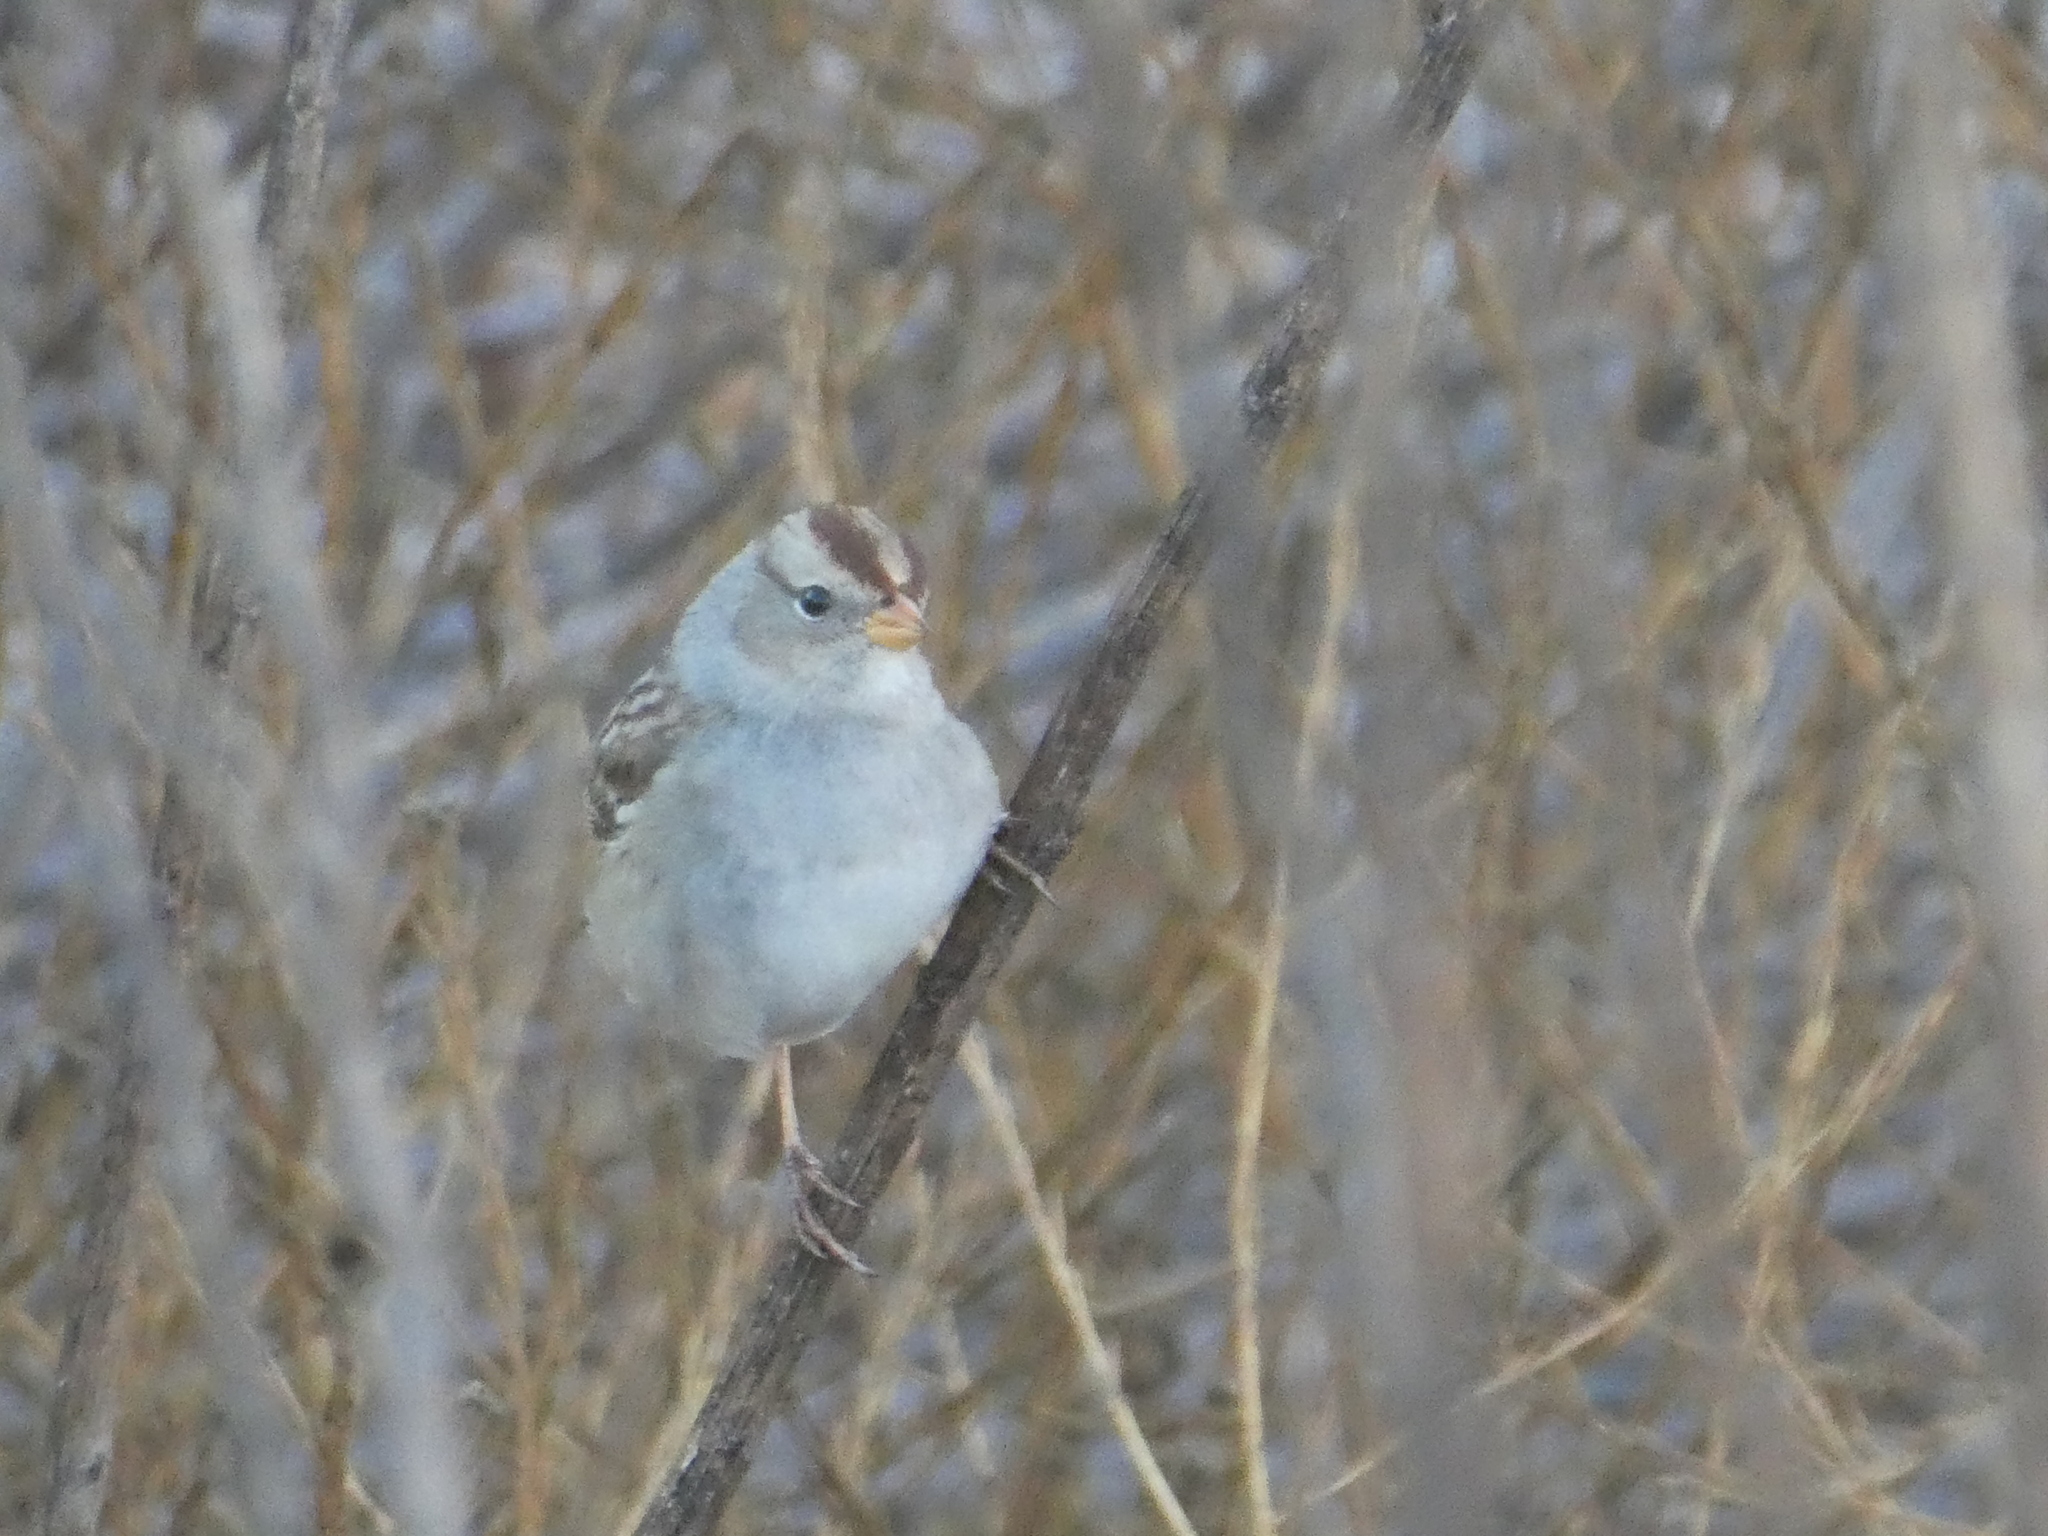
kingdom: Animalia
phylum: Chordata
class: Aves
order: Passeriformes
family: Passerellidae
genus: Zonotrichia
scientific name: Zonotrichia leucophrys
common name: White-crowned sparrow
